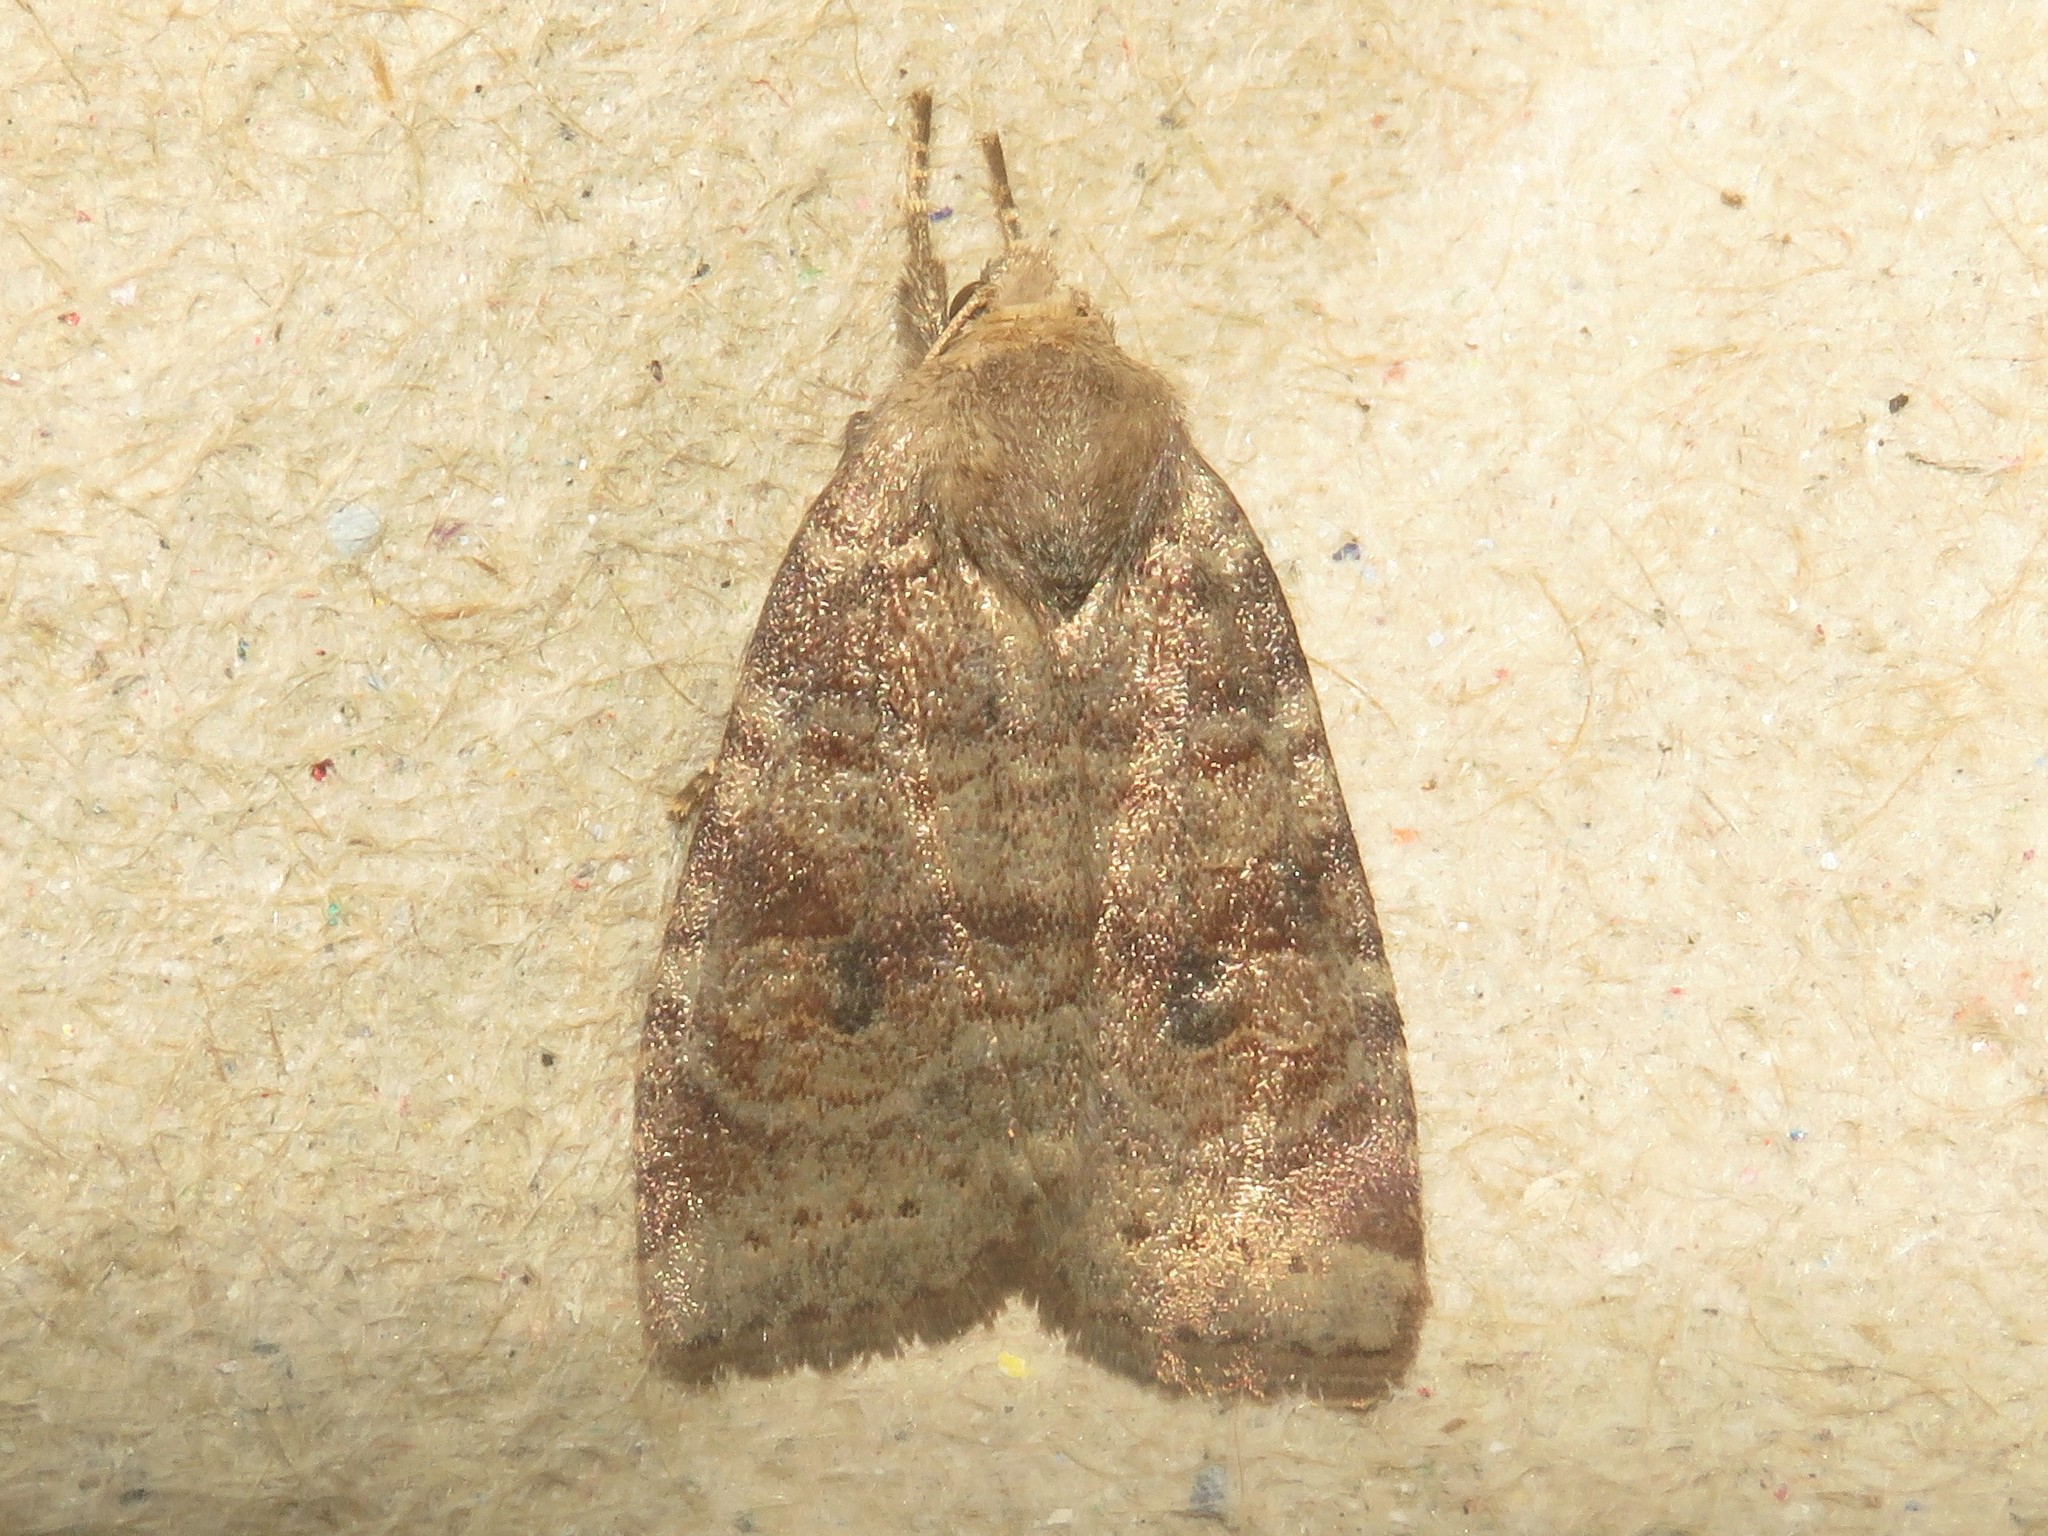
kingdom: Animalia
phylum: Arthropoda
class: Insecta
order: Lepidoptera
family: Noctuidae
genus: Anathix
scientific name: Anathix puta
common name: Puta sallow
